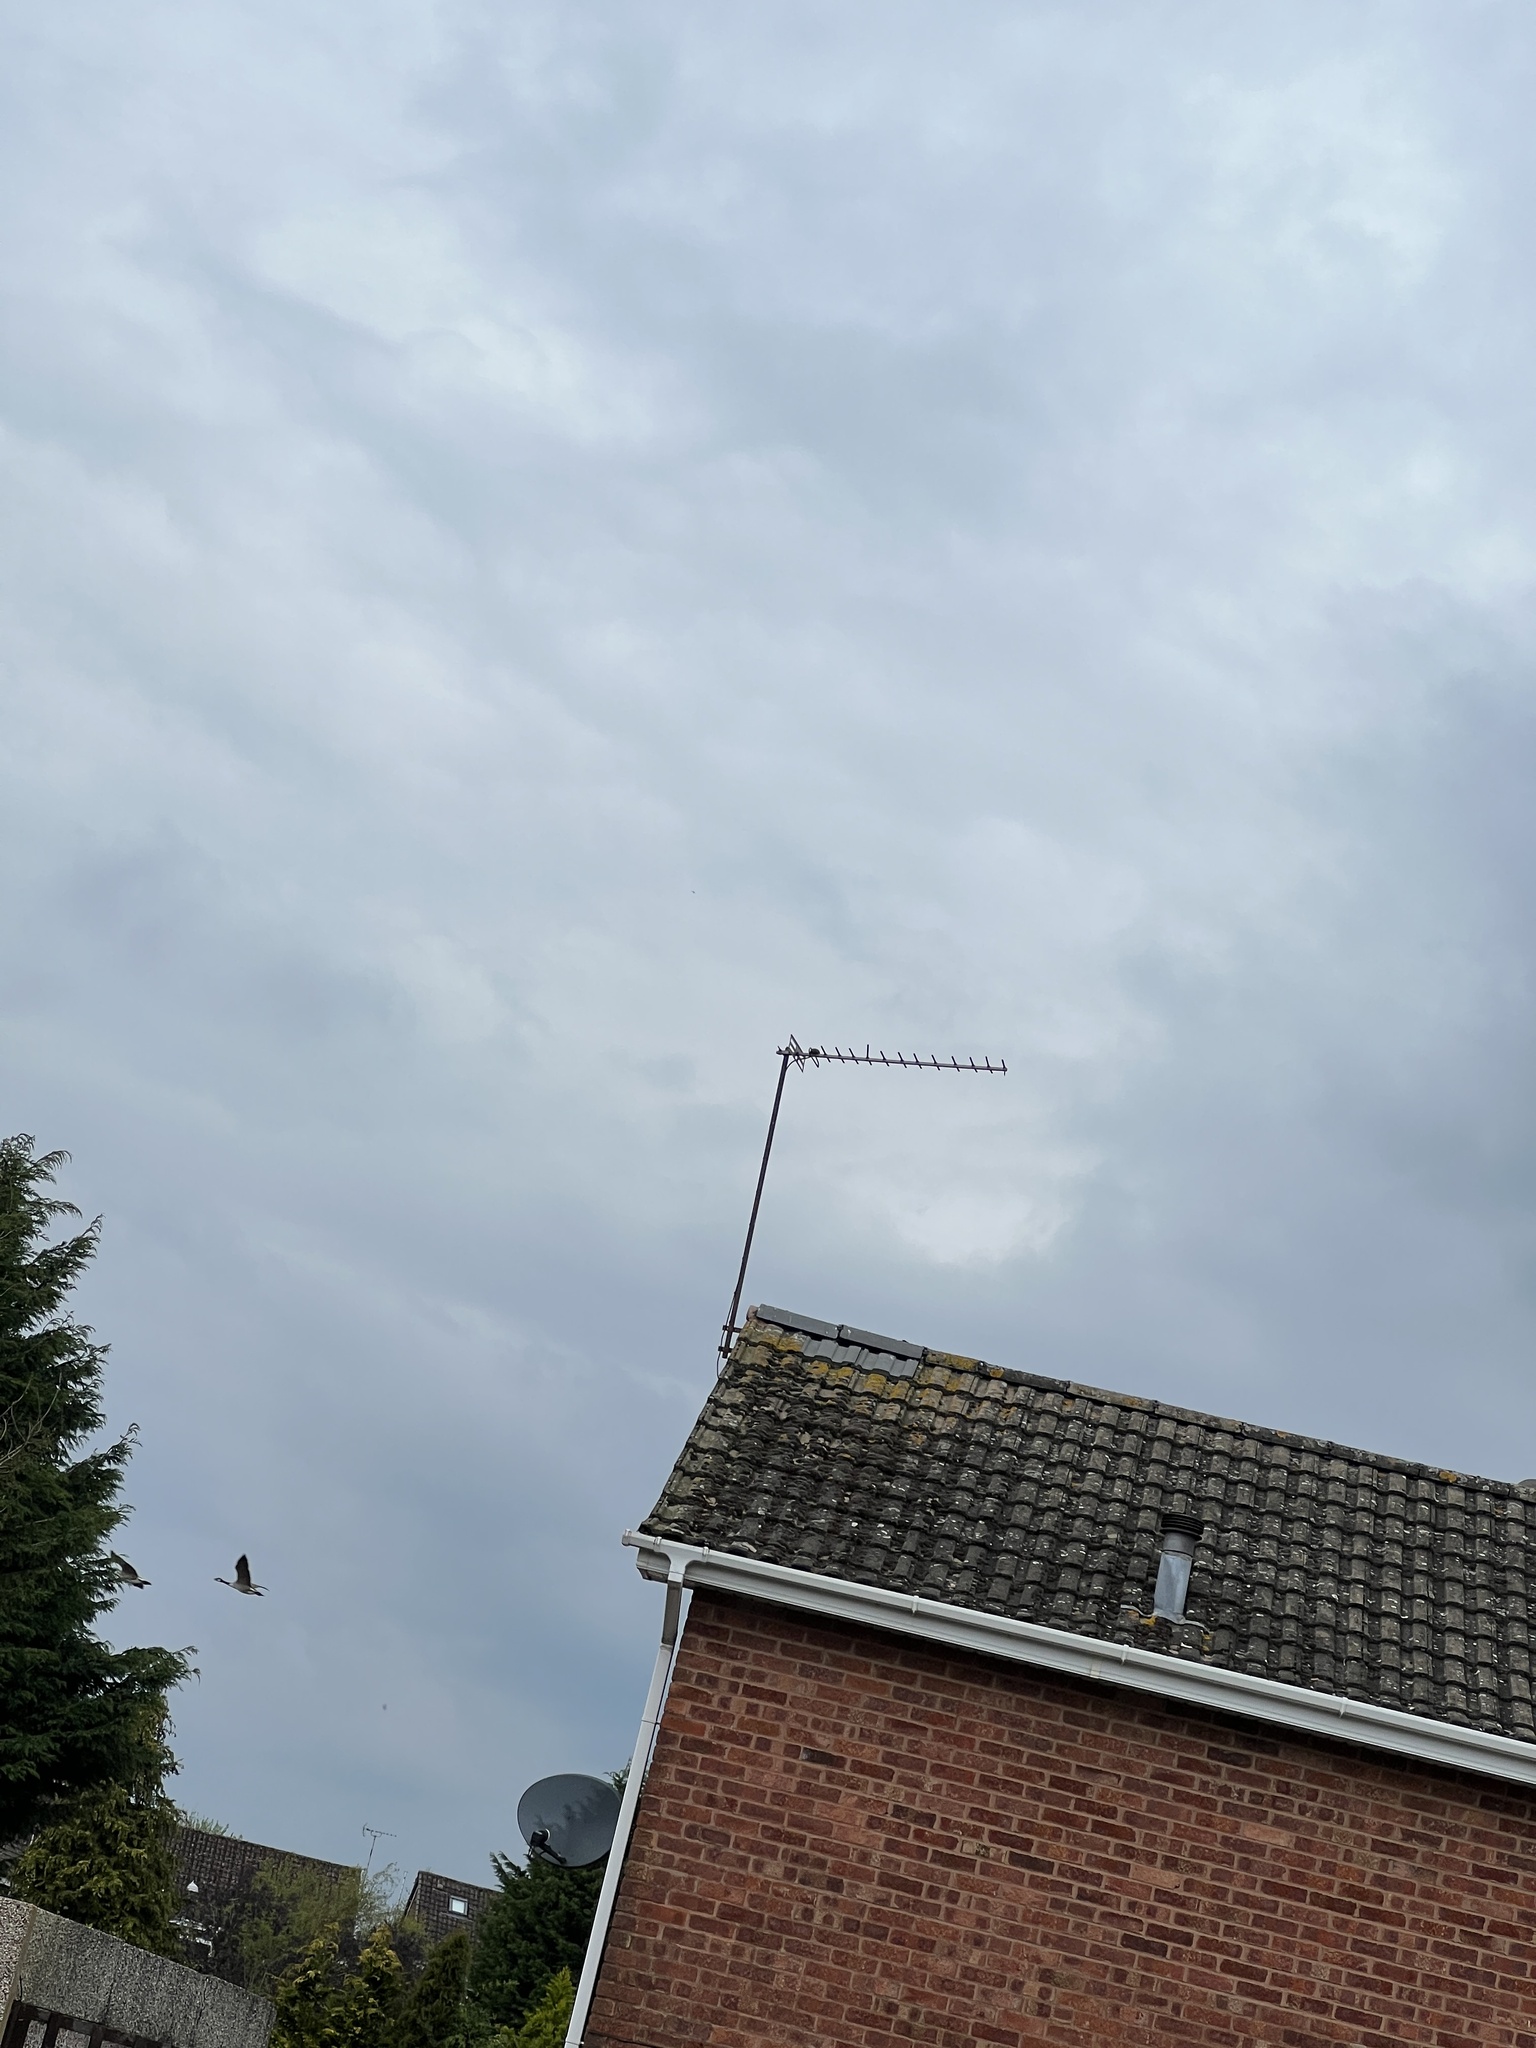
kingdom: Animalia
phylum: Chordata
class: Aves
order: Anseriformes
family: Anatidae
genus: Branta
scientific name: Branta canadensis
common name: Canada goose
